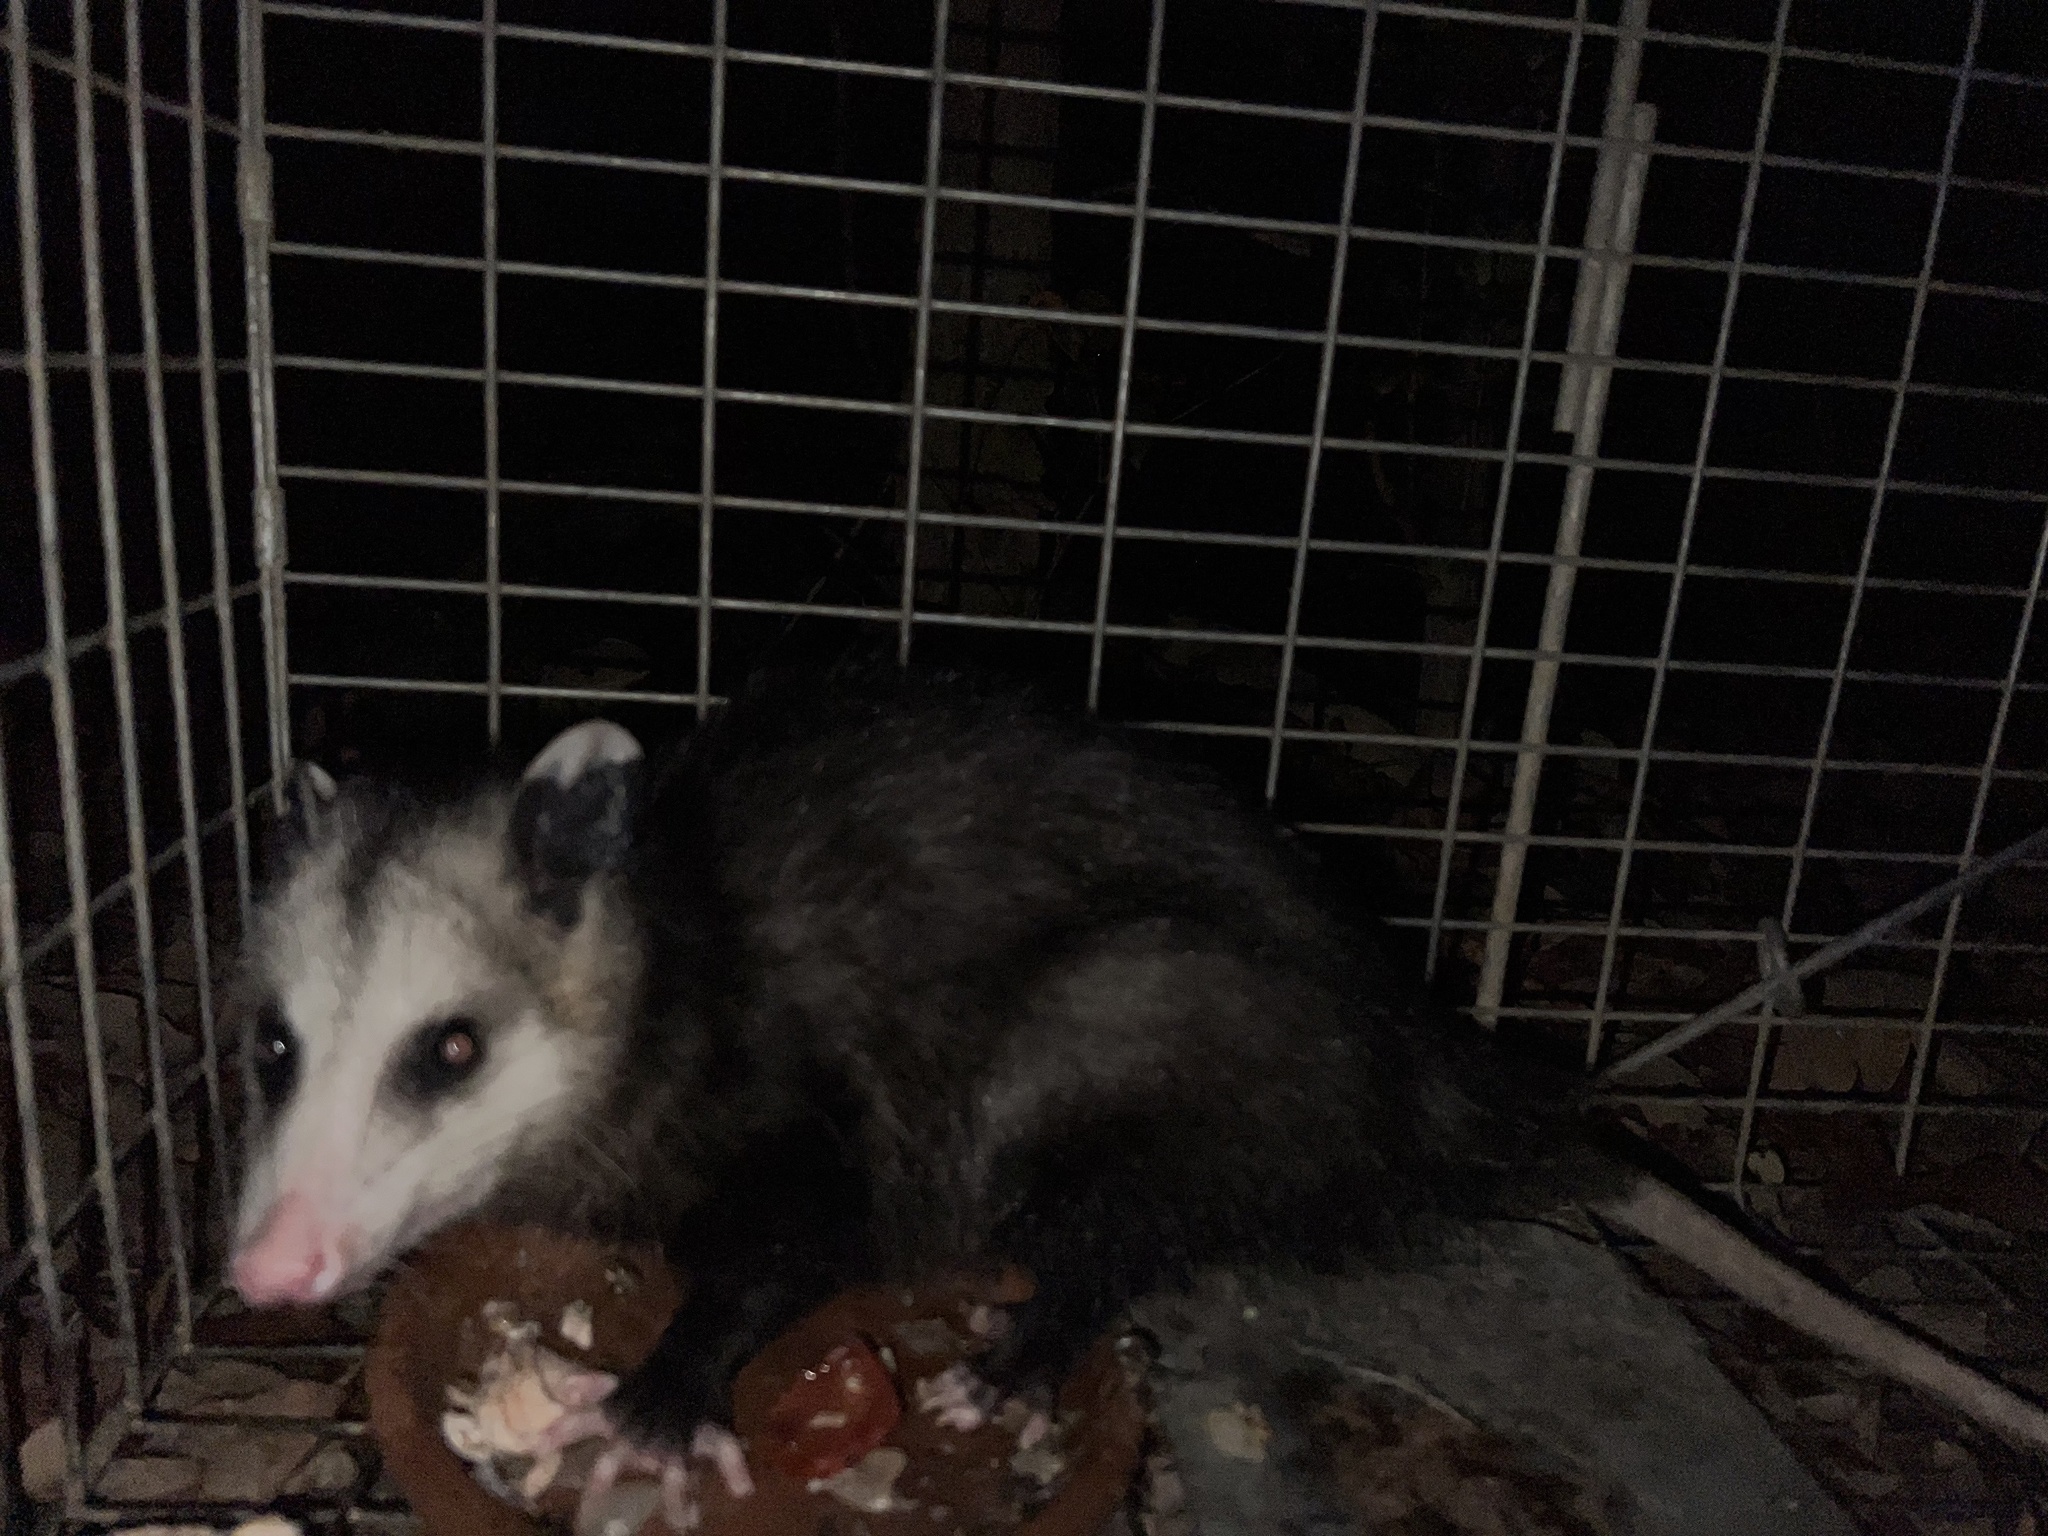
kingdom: Animalia
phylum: Chordata
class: Mammalia
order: Didelphimorphia
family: Didelphidae
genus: Didelphis
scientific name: Didelphis virginiana
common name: Virginia opossum
